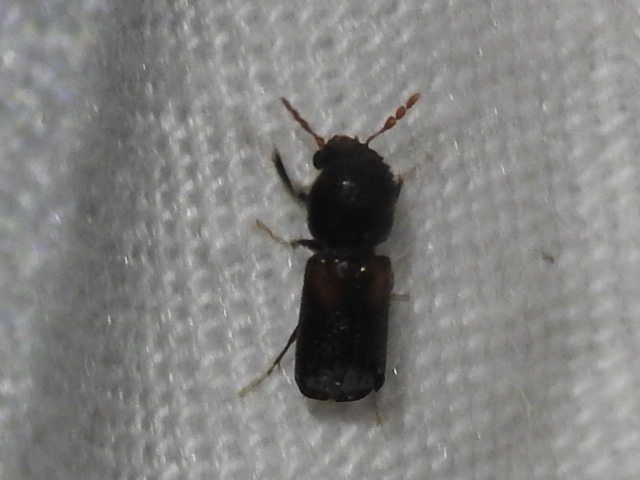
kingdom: Animalia
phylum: Arthropoda
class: Insecta
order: Coleoptera
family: Bostrichidae
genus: Xylobiops
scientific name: Xylobiops basilaris
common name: Red-shouldered bostrichid
